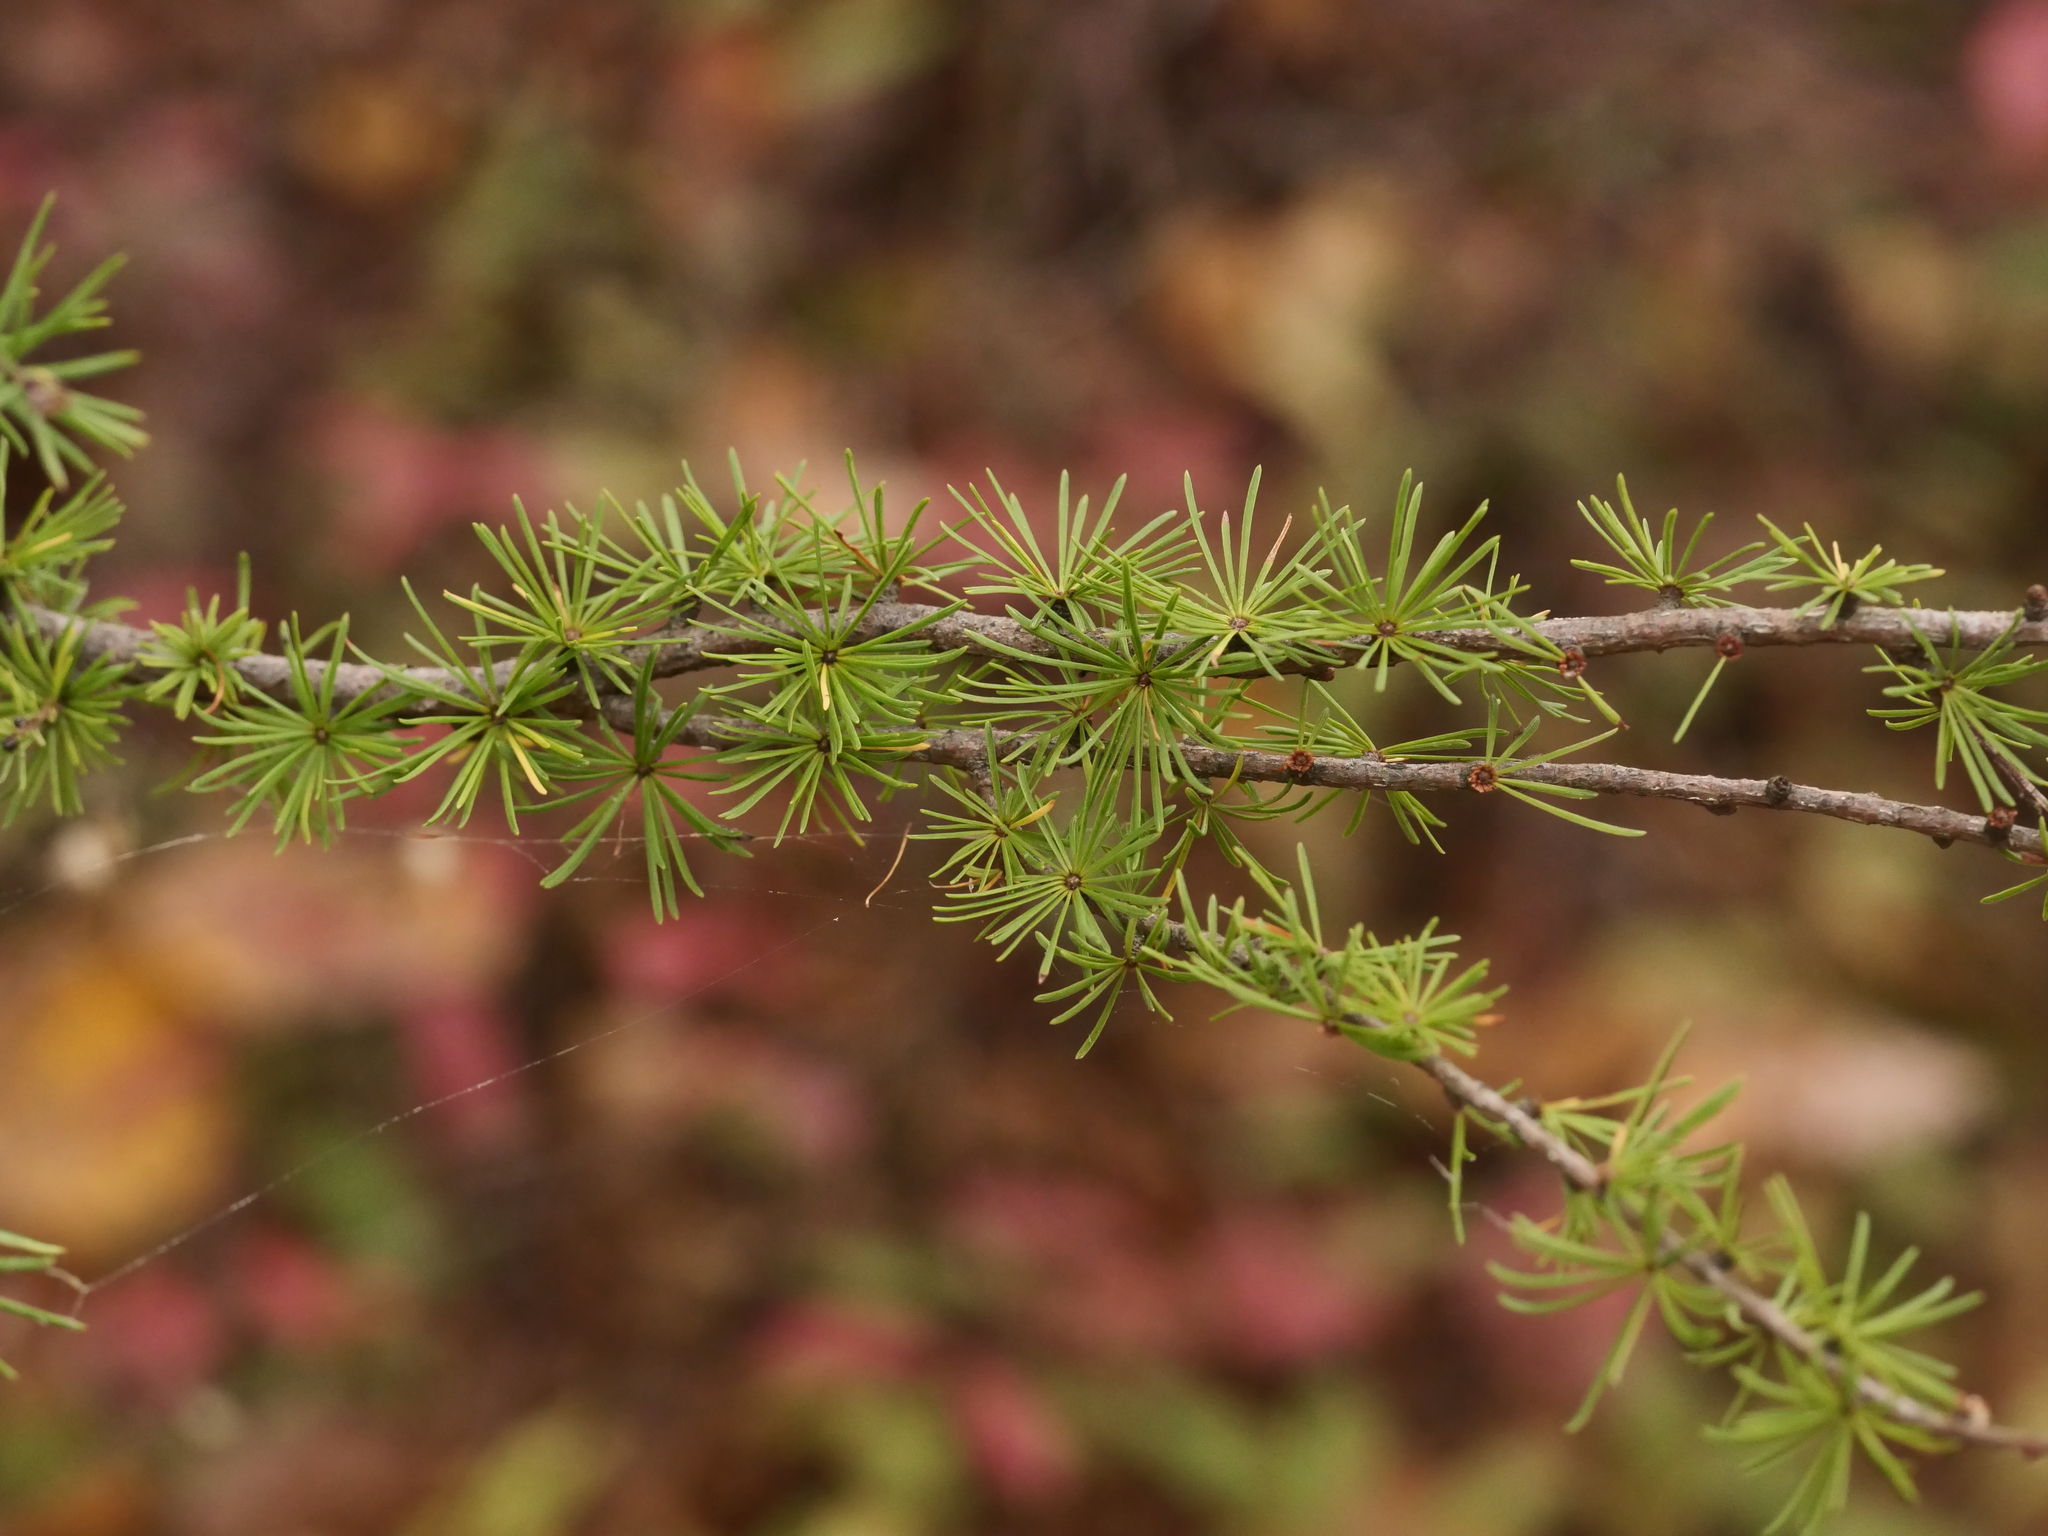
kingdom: Plantae
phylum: Tracheophyta
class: Pinopsida
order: Pinales
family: Pinaceae
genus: Larix
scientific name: Larix laricina
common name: American larch
